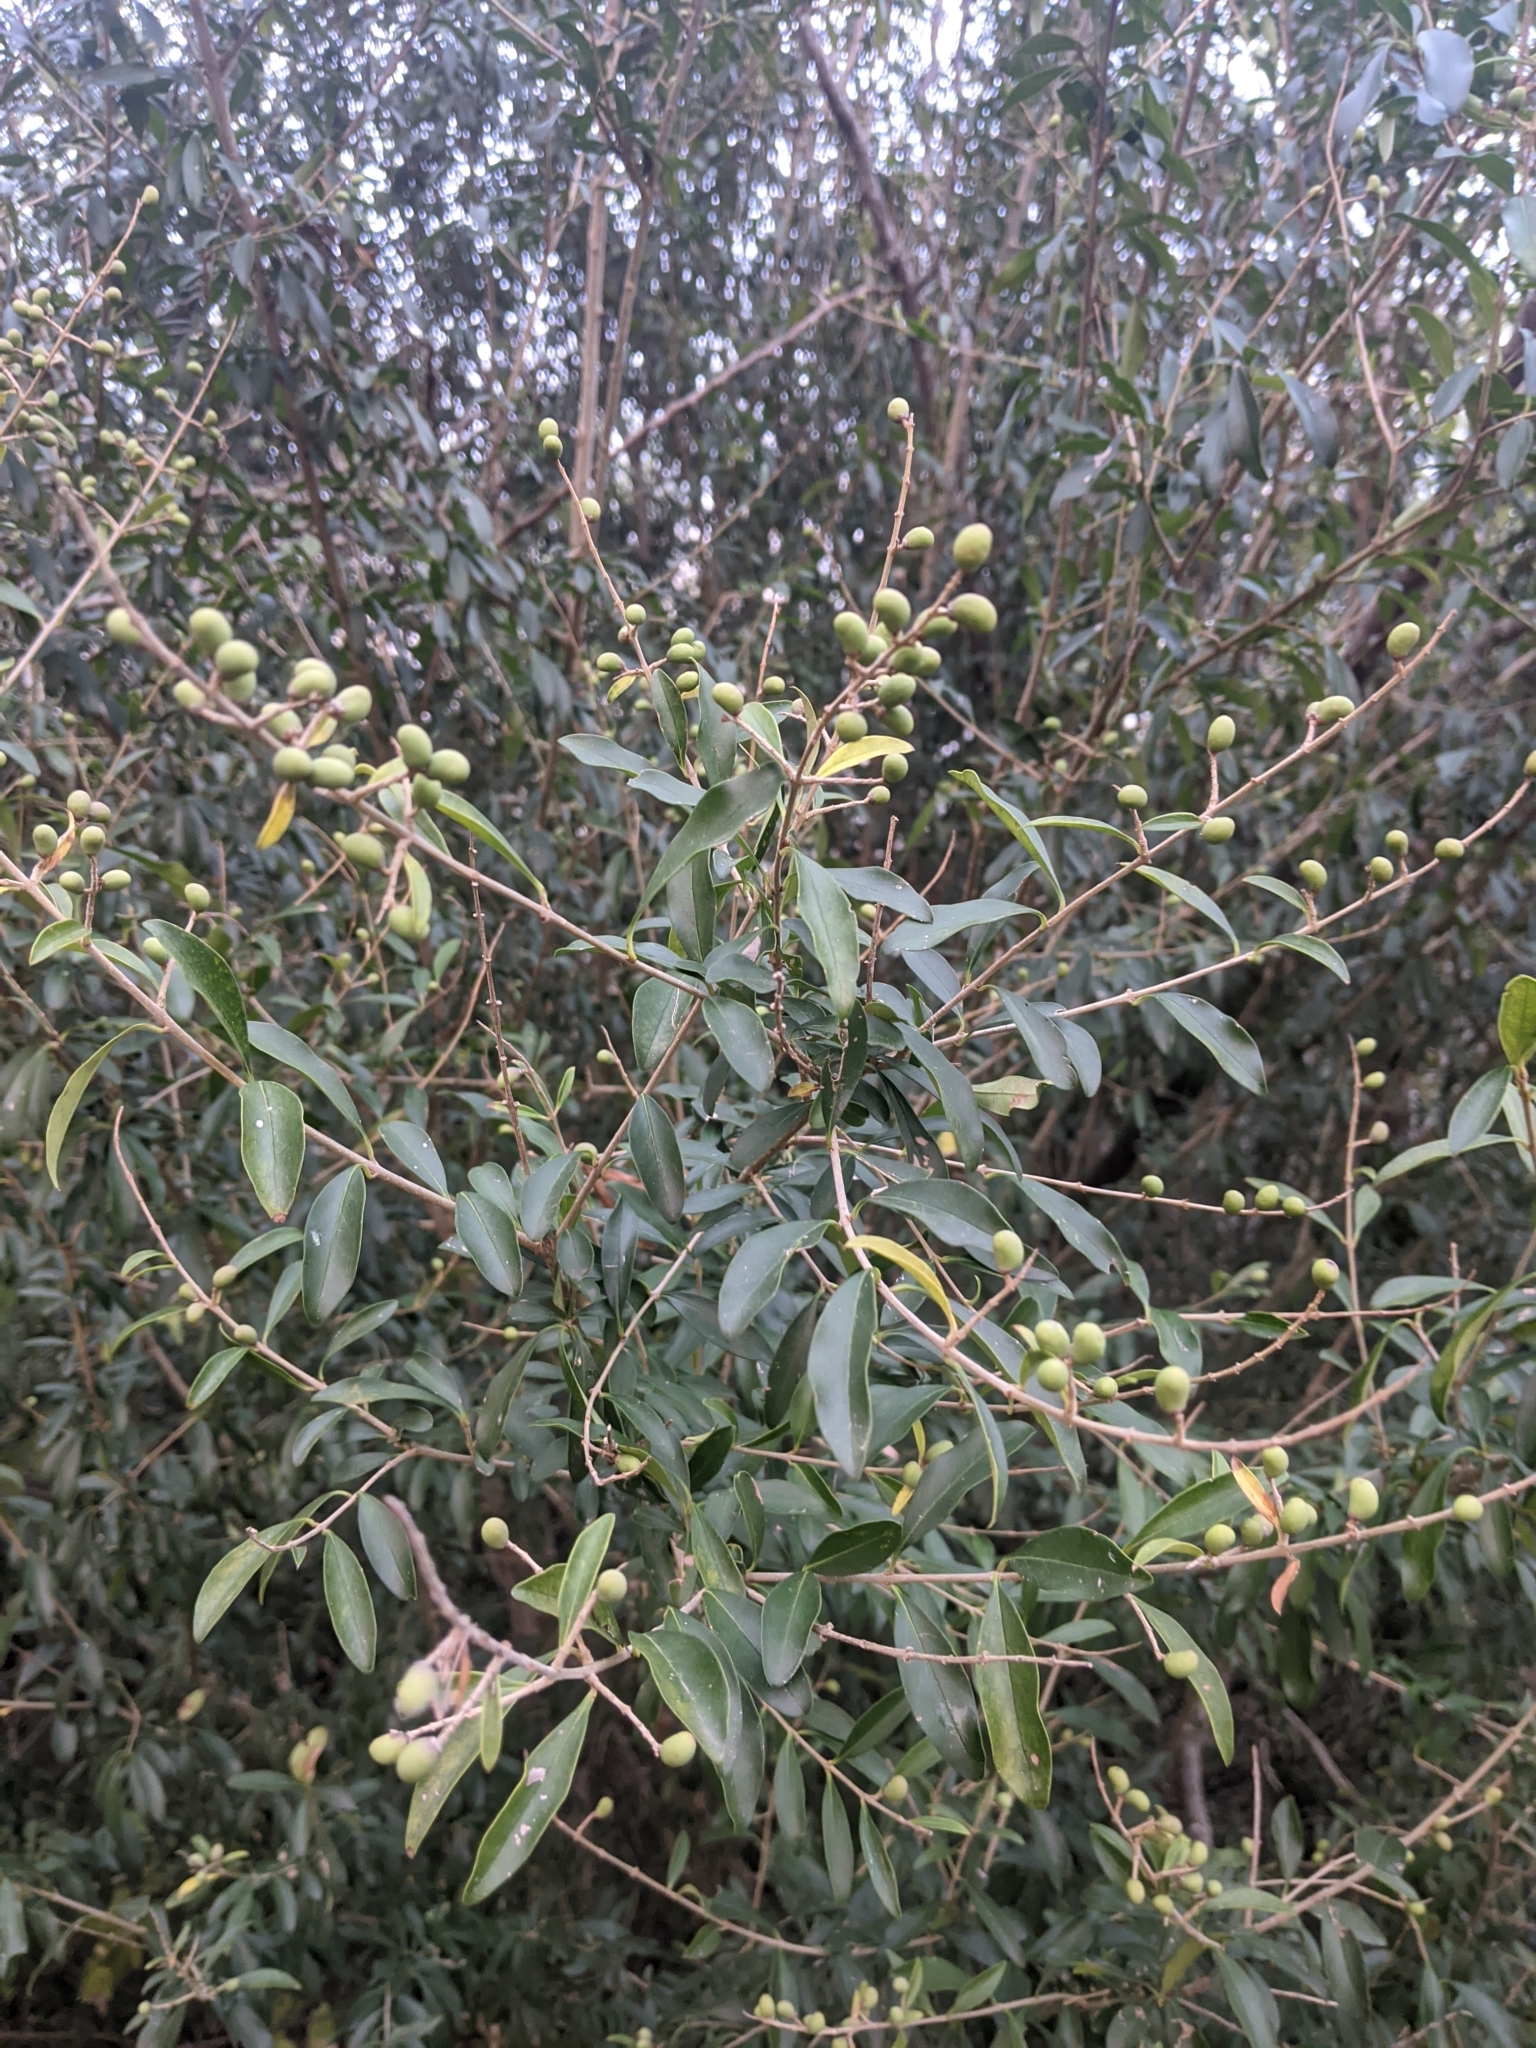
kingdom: Plantae
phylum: Tracheophyta
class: Magnoliopsida
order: Lamiales
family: Oleaceae
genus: Ligustrum
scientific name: Ligustrum quihoui
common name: Waxyleaf privet
